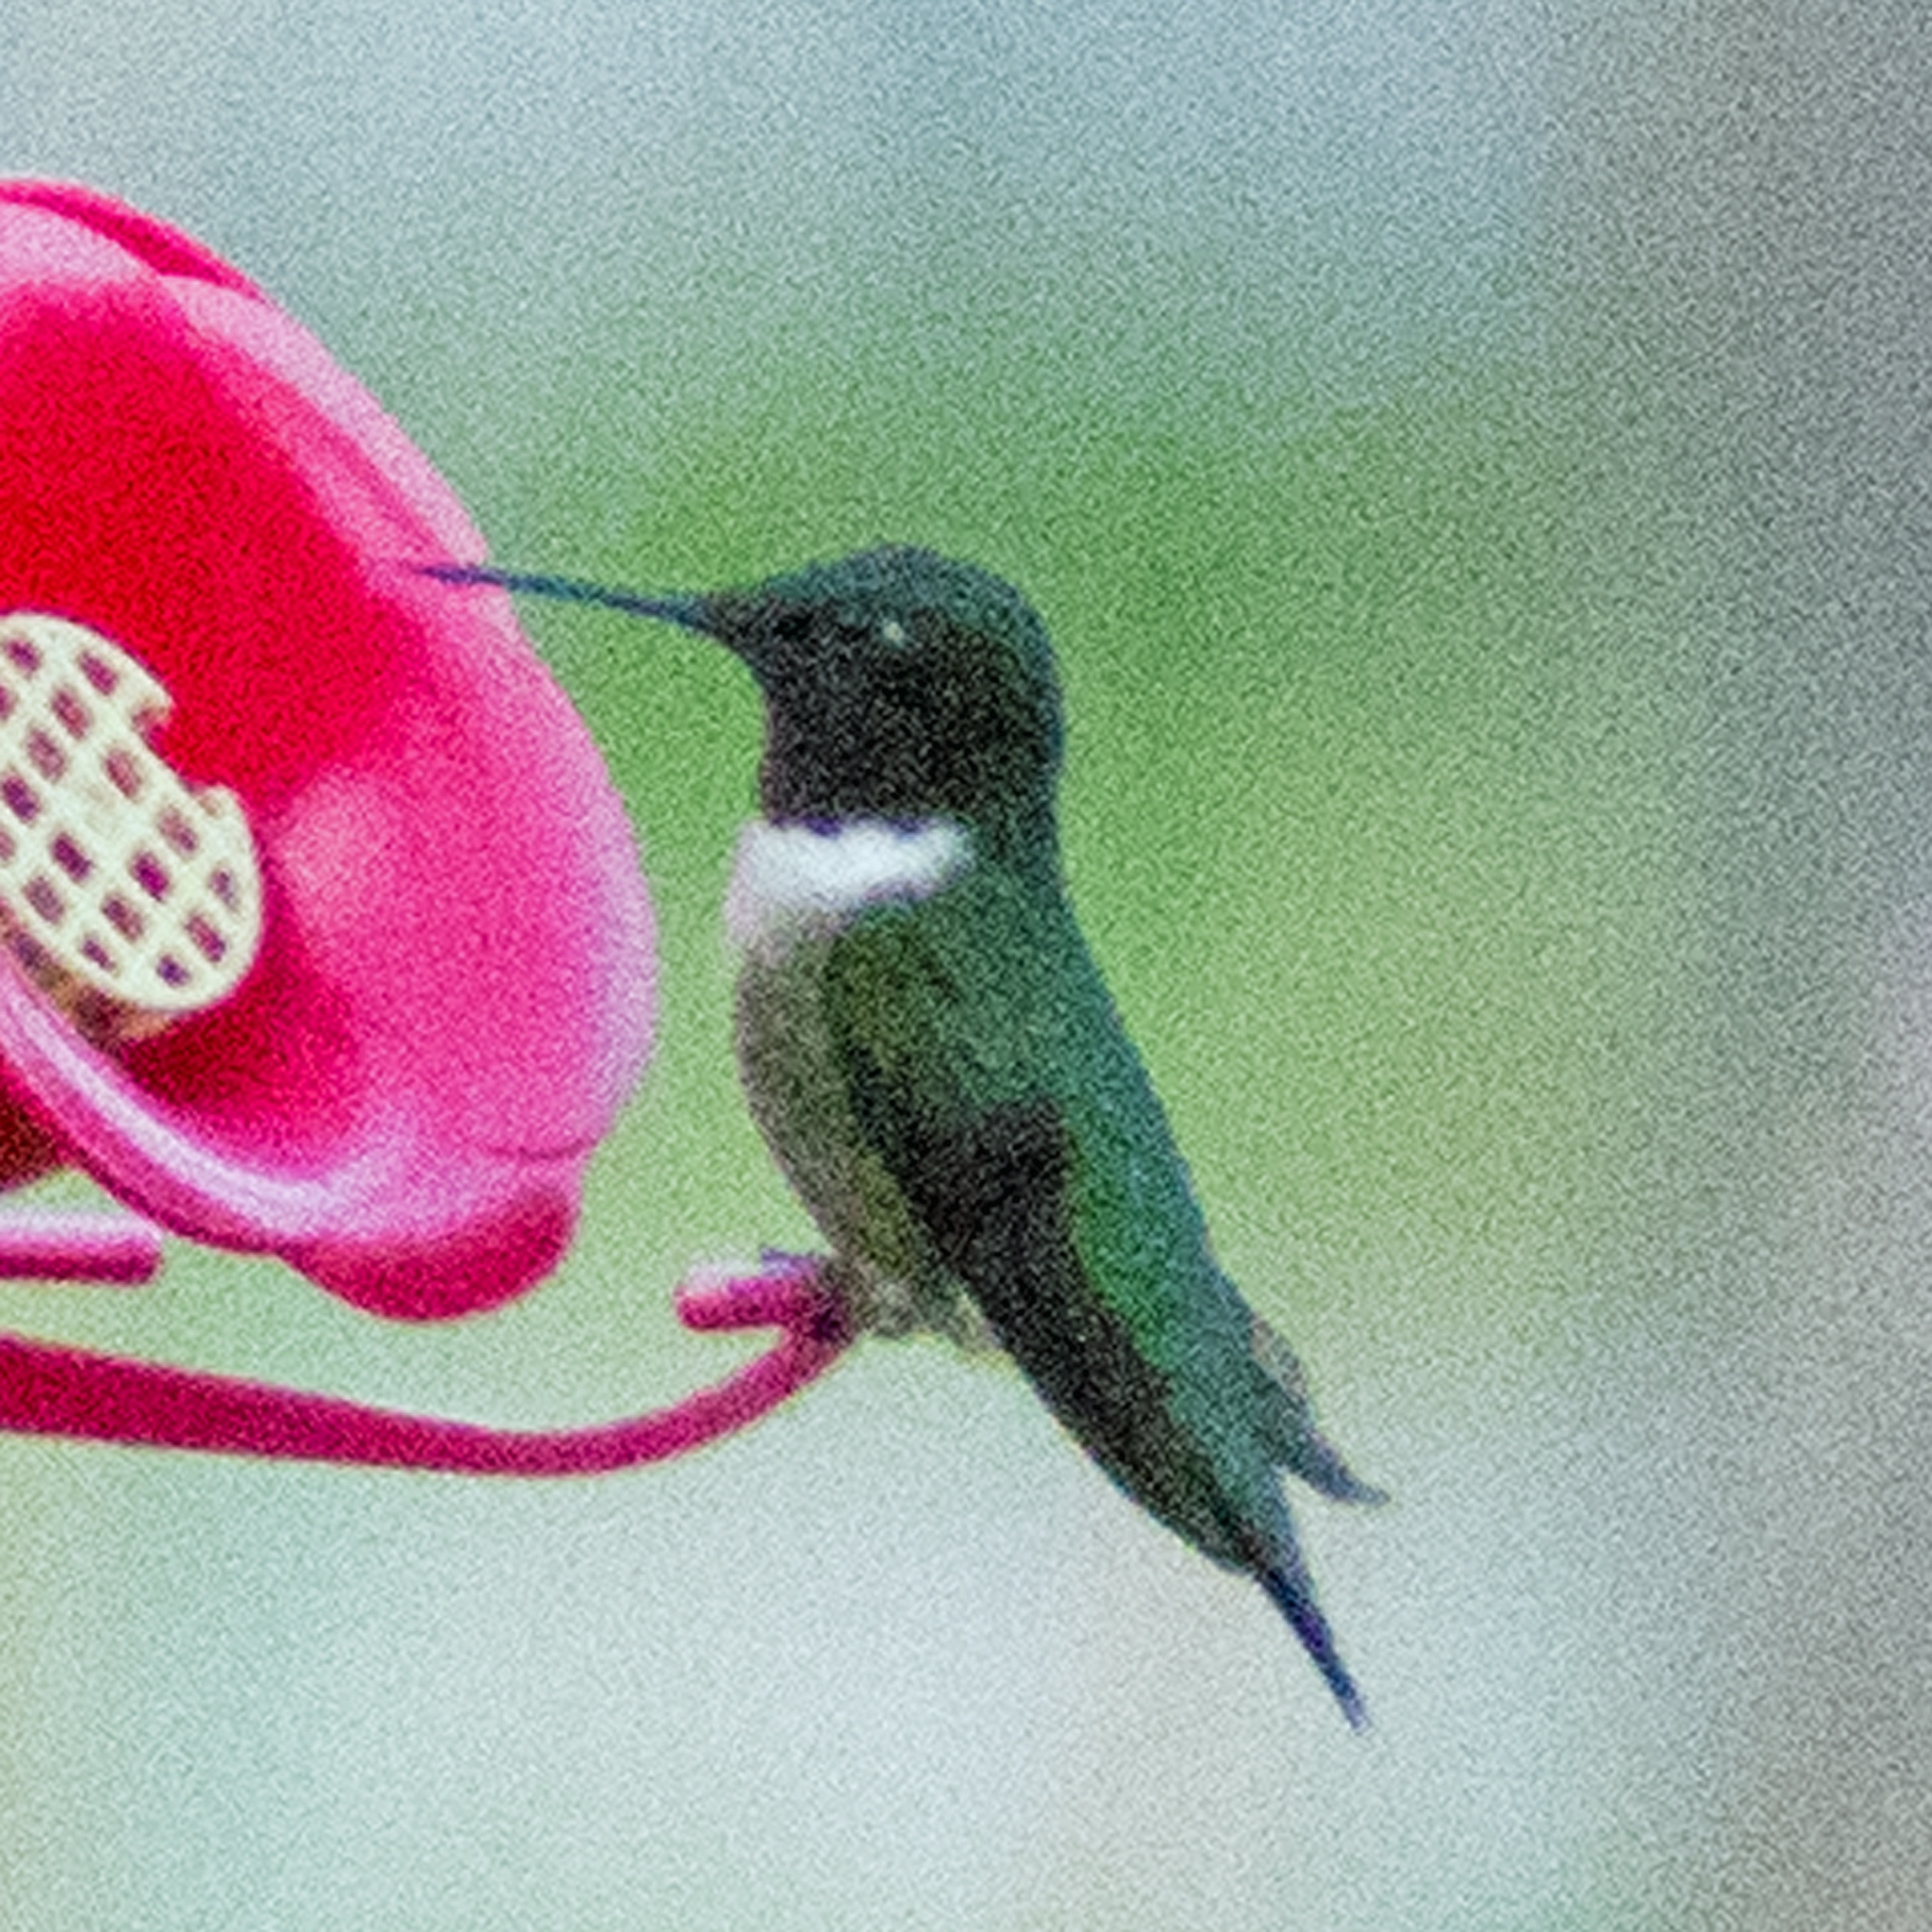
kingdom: Animalia
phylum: Chordata
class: Aves
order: Apodiformes
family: Trochilidae
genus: Archilochus
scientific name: Archilochus colubris
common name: Ruby-throated hummingbird
